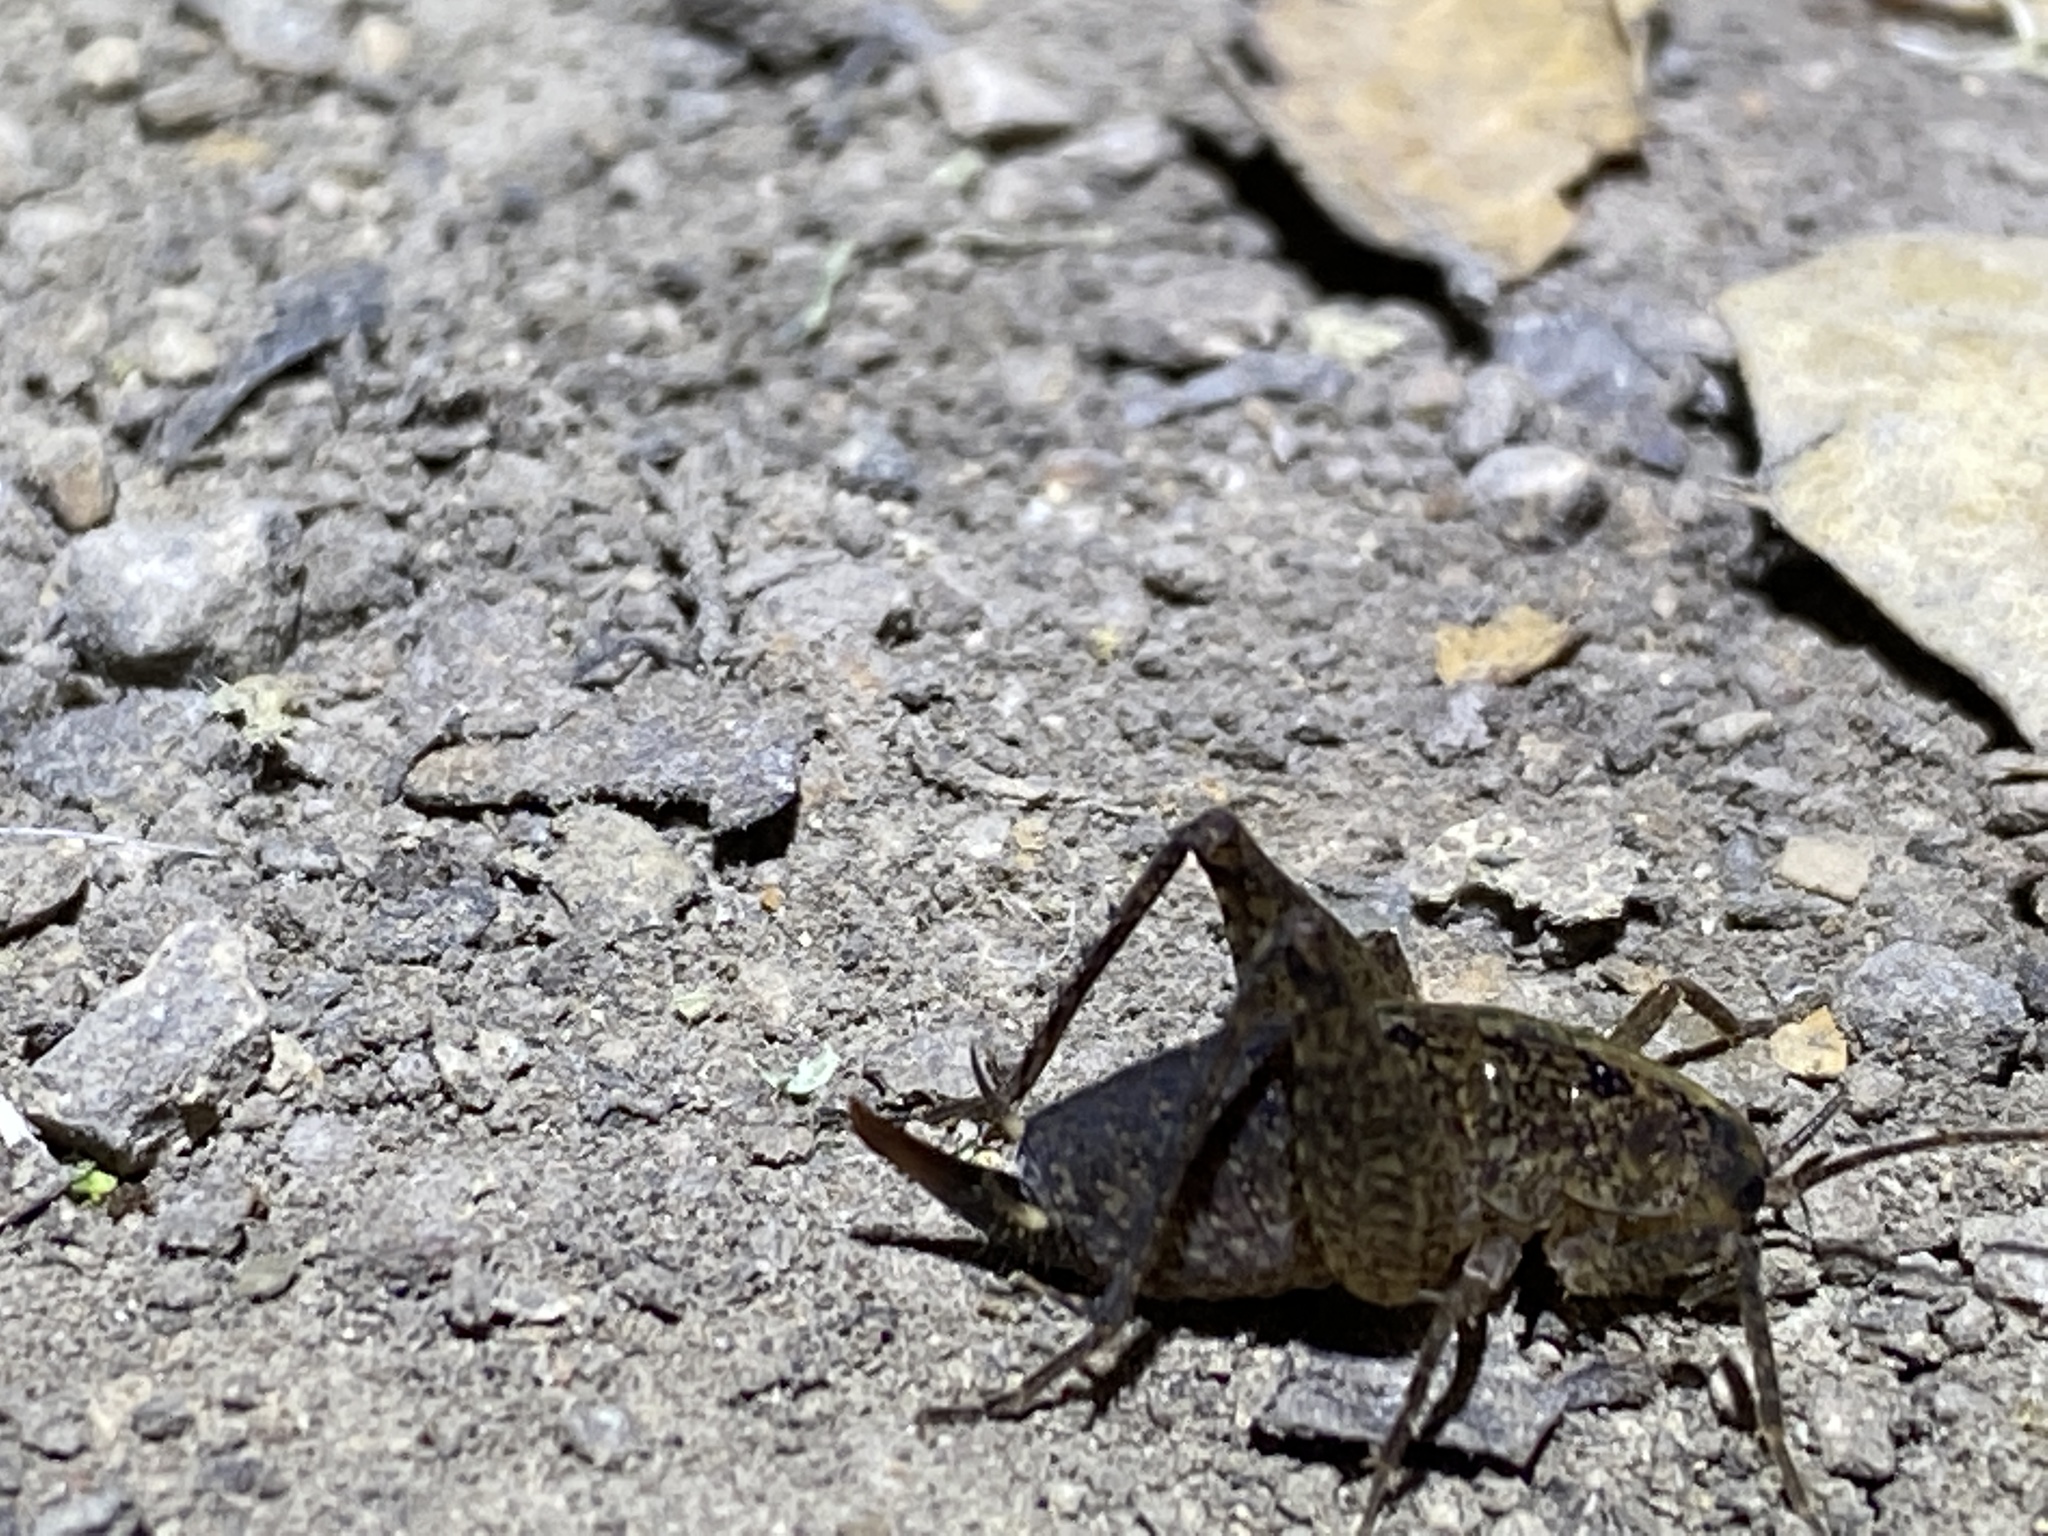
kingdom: Animalia
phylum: Arthropoda
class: Insecta
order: Orthoptera
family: Rhaphidophoridae
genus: Pristoceuthophilus
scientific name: Pristoceuthophilus
